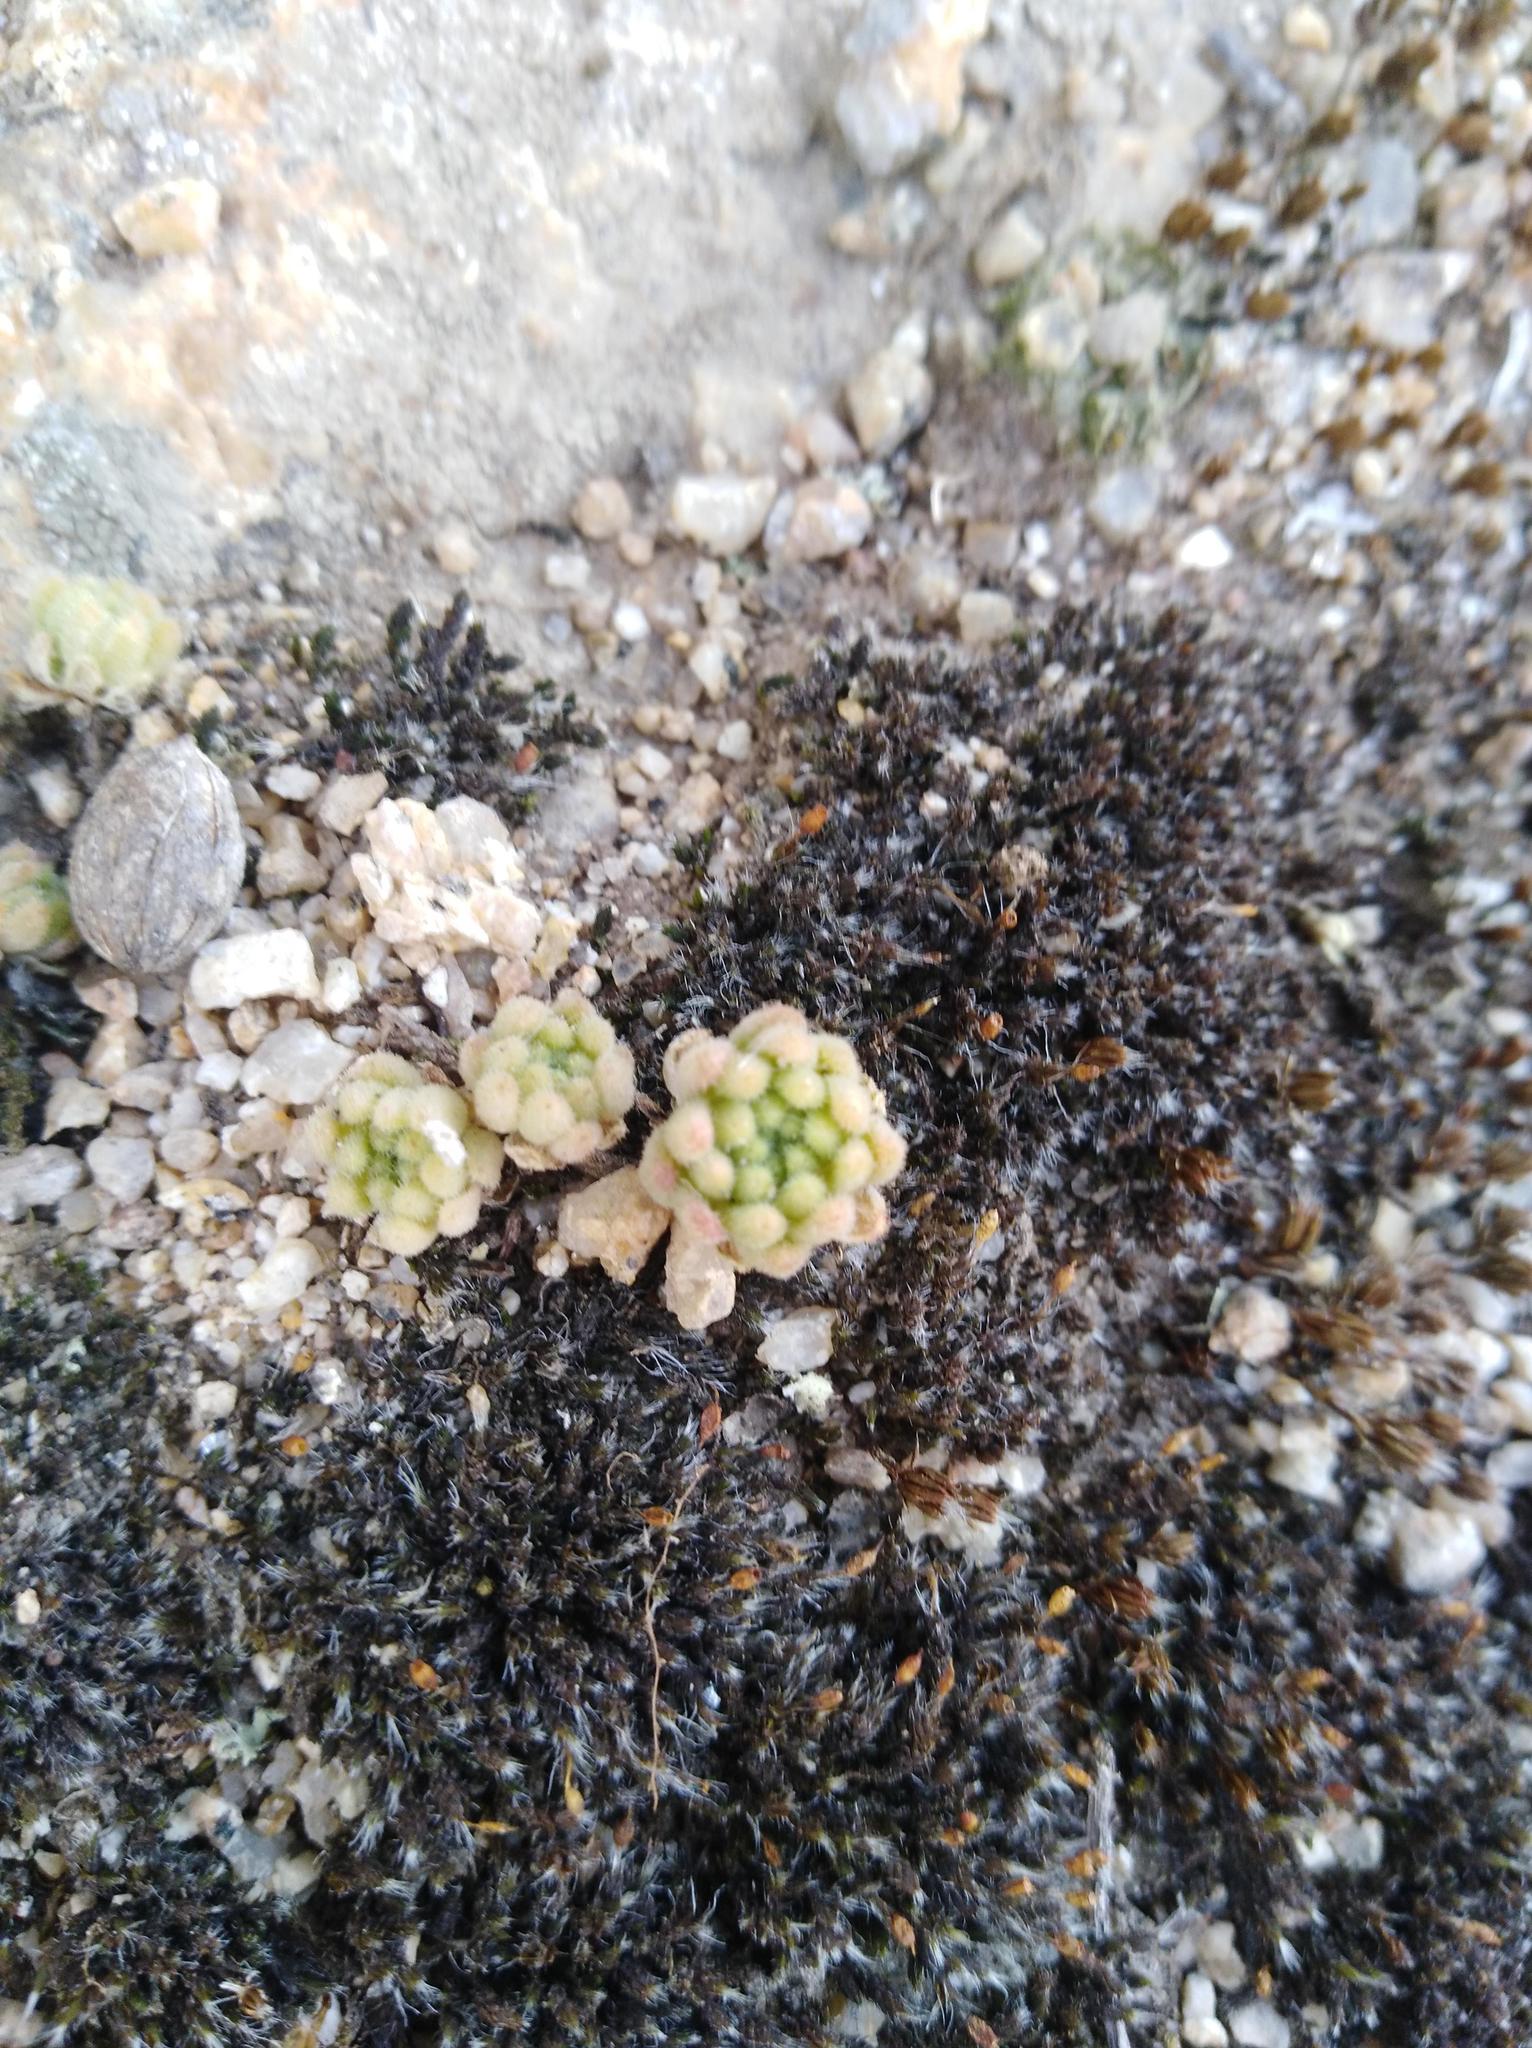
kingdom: Plantae
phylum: Tracheophyta
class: Magnoliopsida
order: Saxifragales
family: Crassulaceae
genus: Sedum
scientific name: Sedum hirsutum
